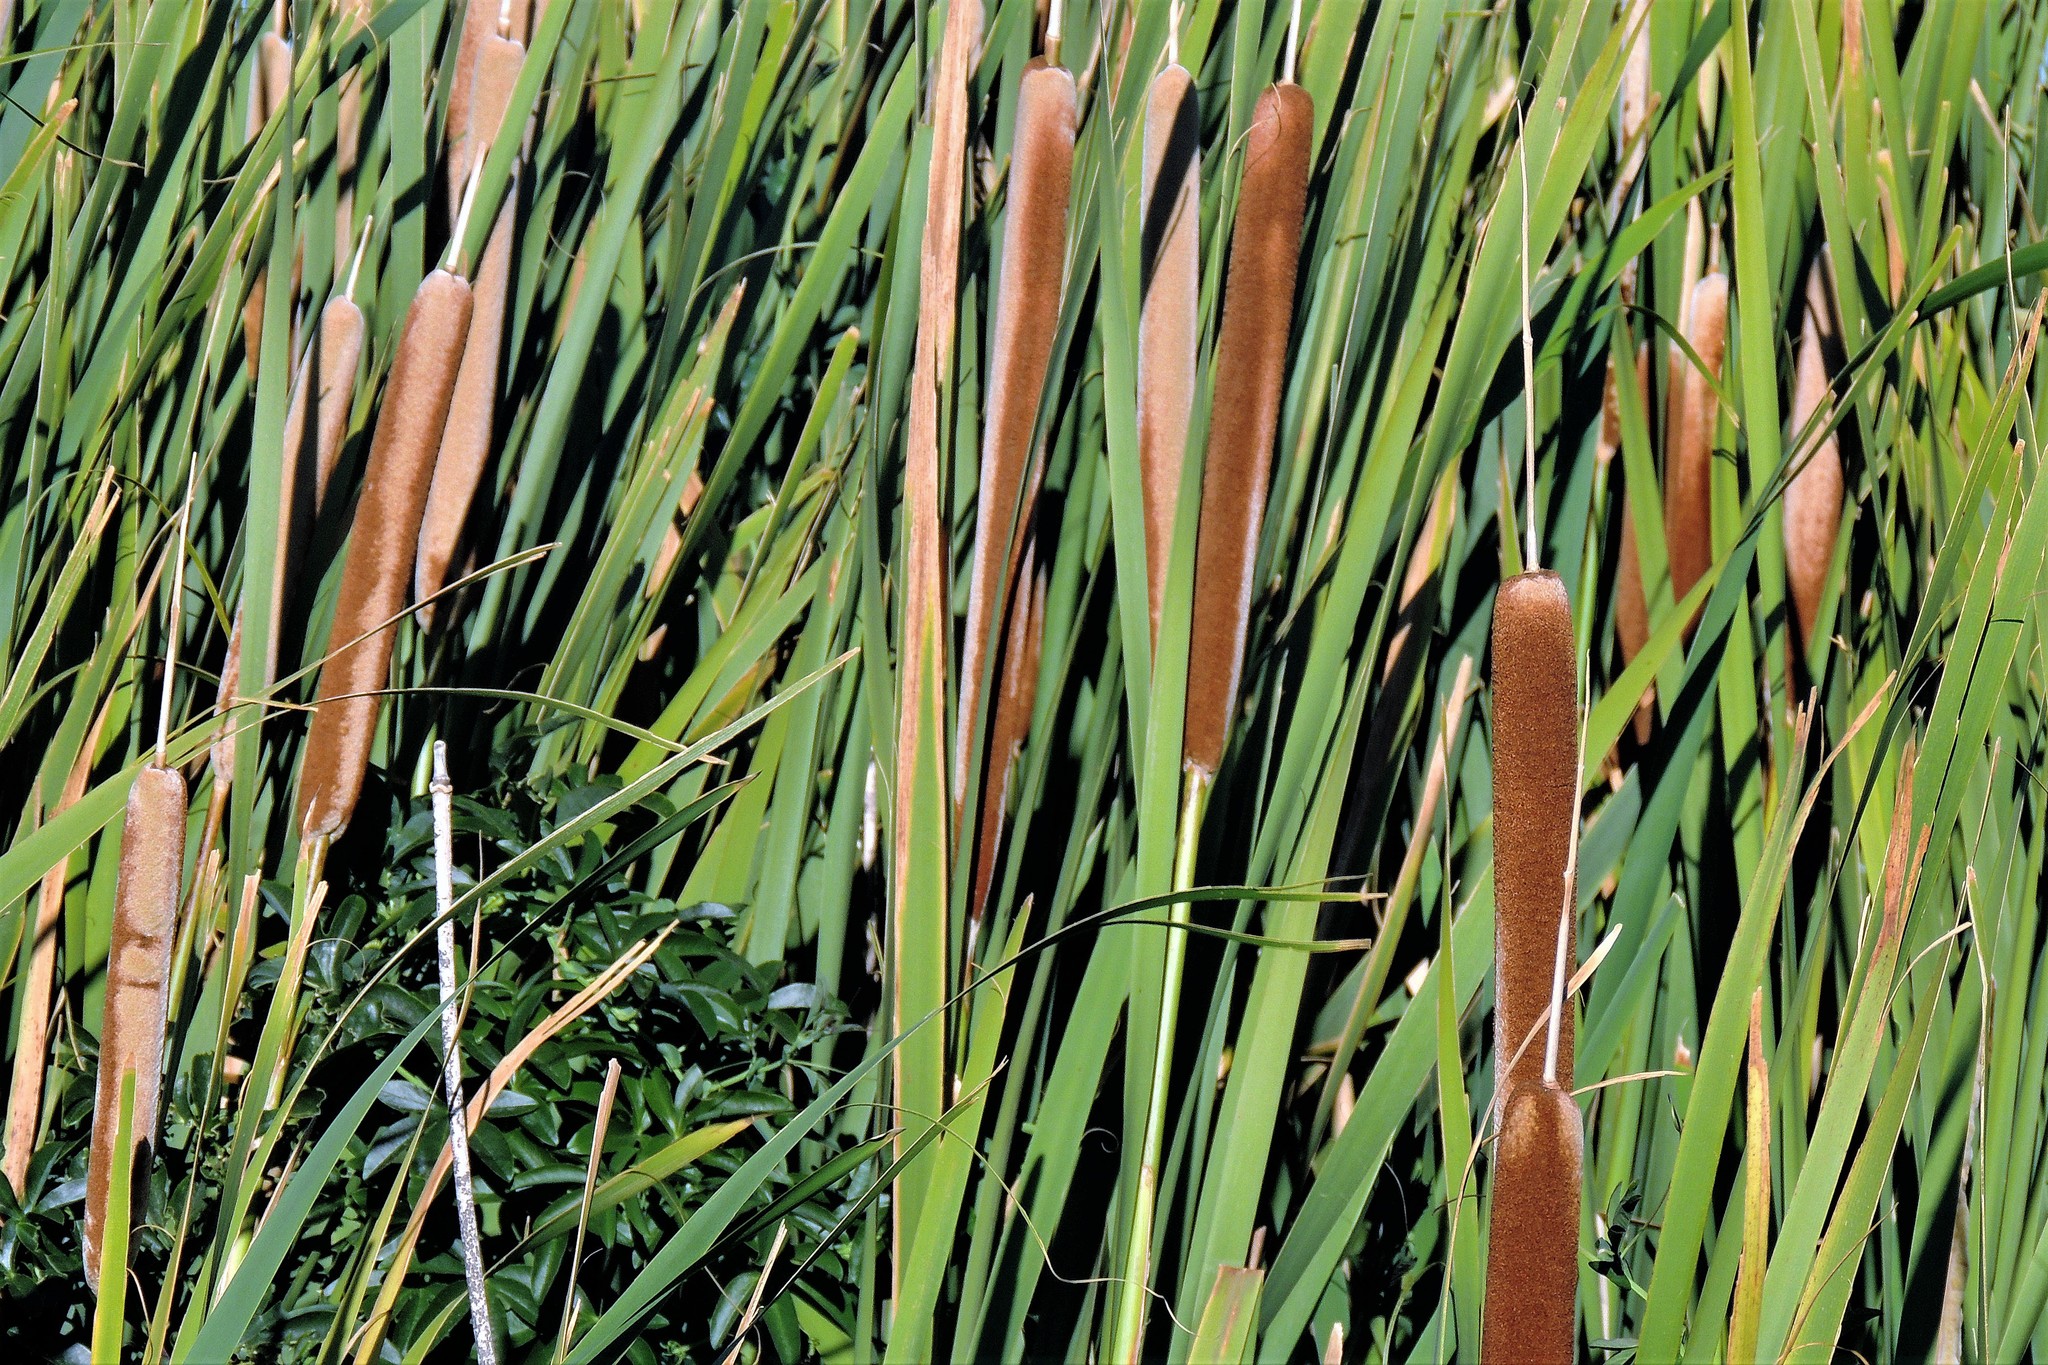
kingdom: Plantae
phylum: Tracheophyta
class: Liliopsida
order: Poales
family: Typhaceae
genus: Typha
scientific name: Typha domingensis
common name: Southern cattail
